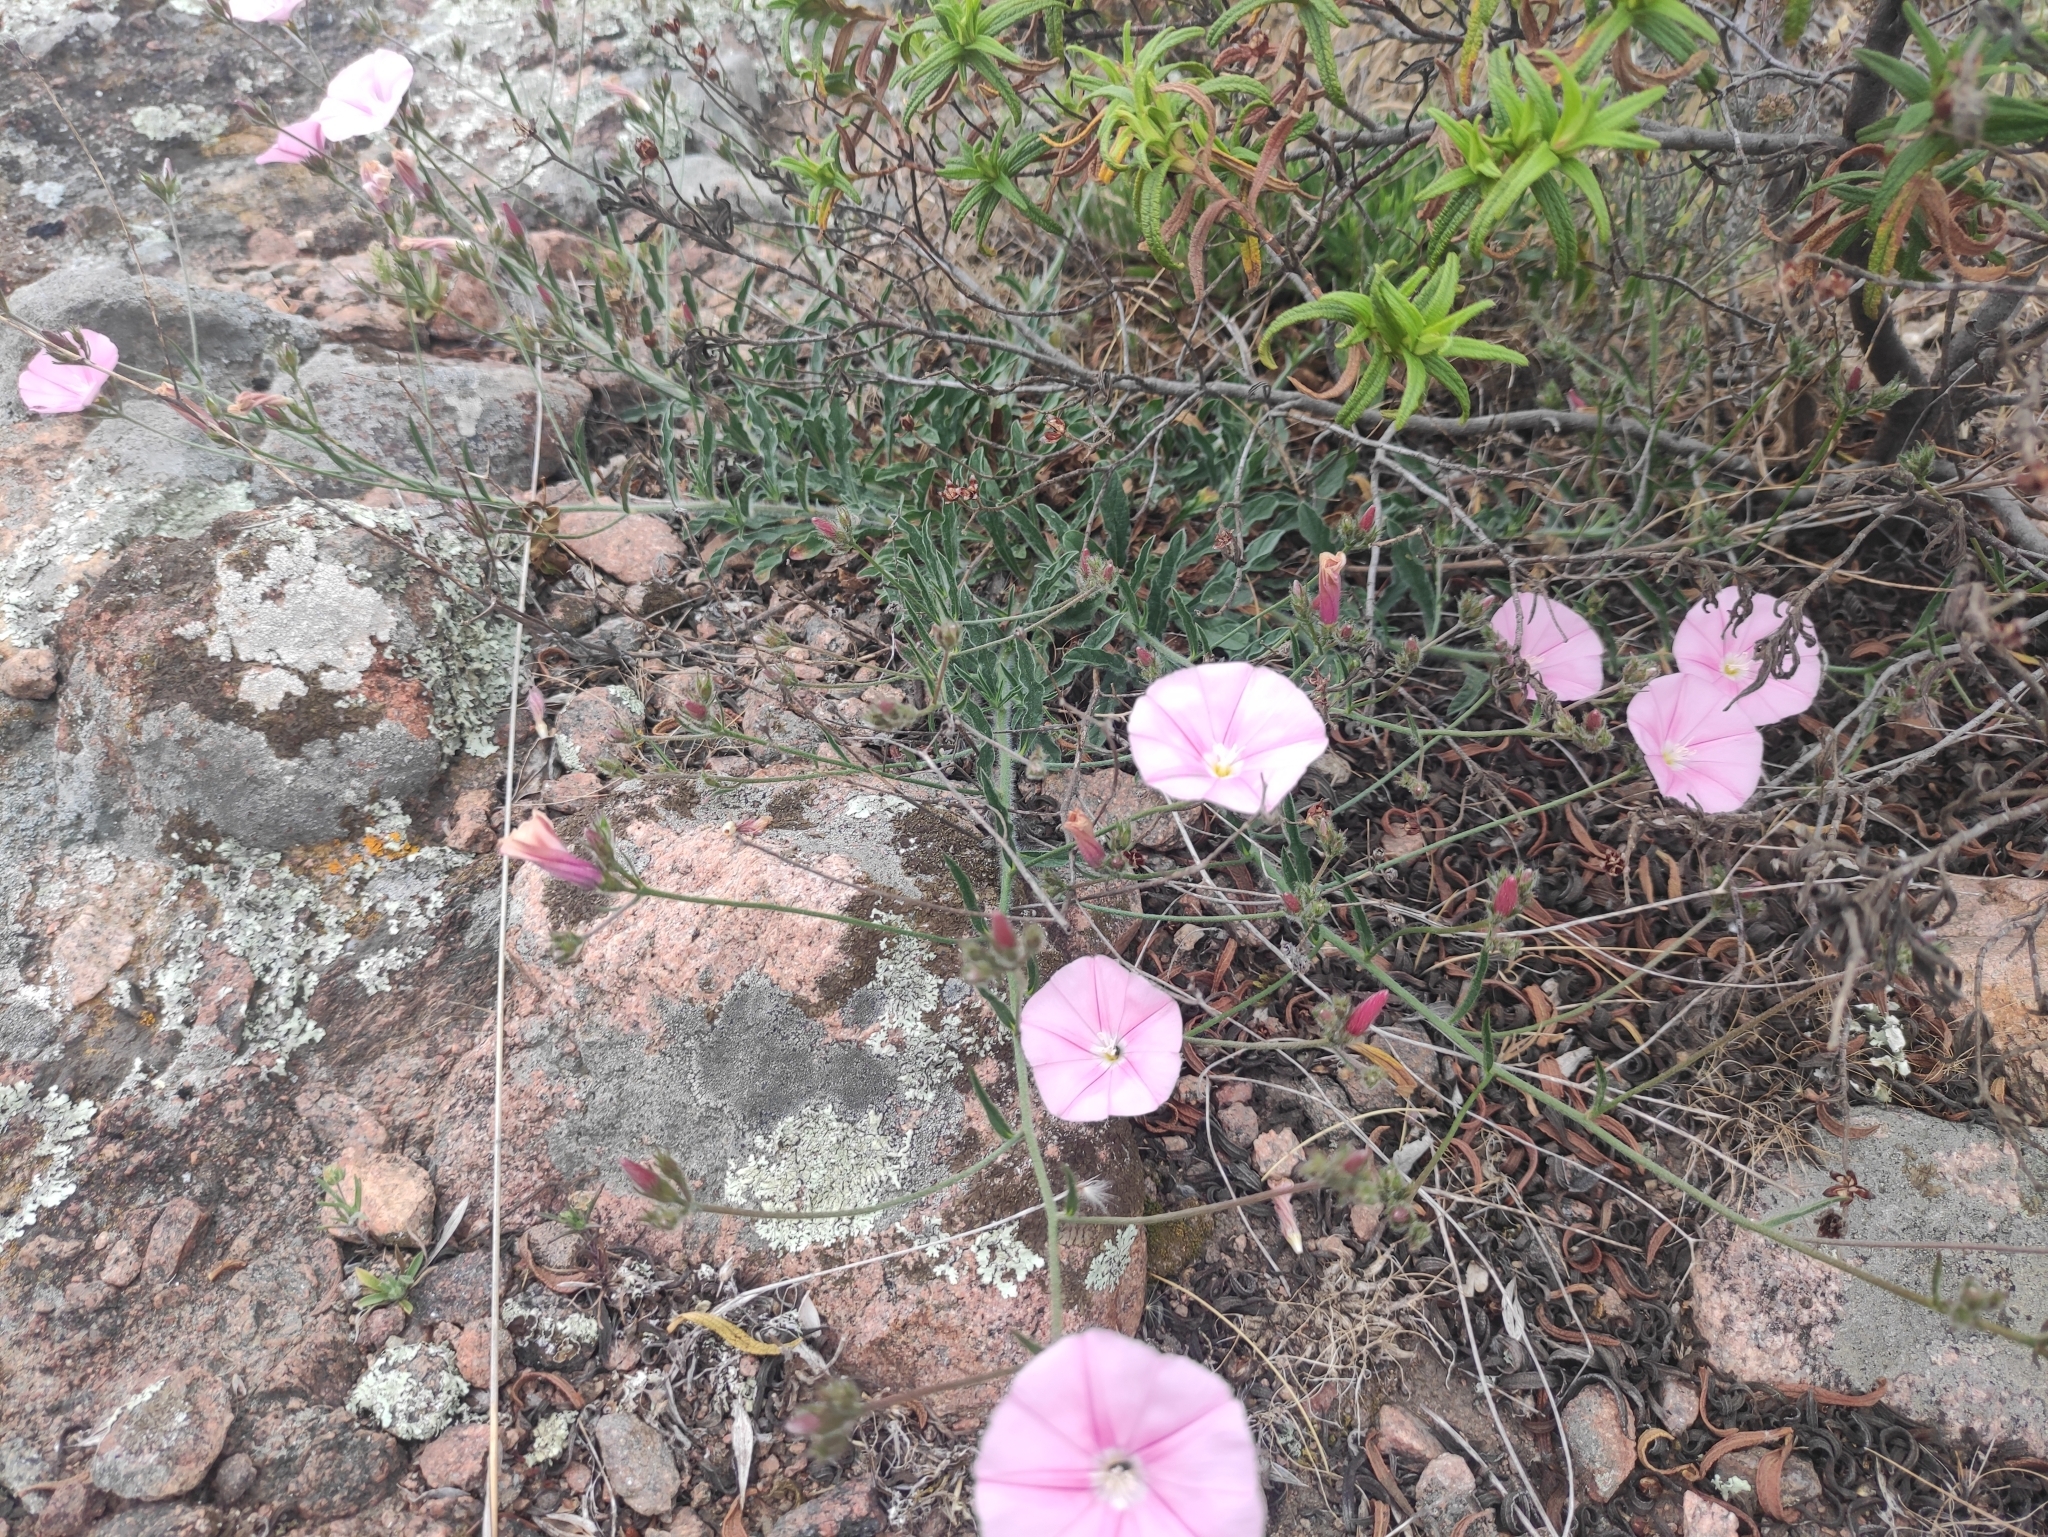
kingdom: Plantae
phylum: Tracheophyta
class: Magnoliopsida
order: Solanales
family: Convolvulaceae
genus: Convolvulus
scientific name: Convolvulus cantabrica
